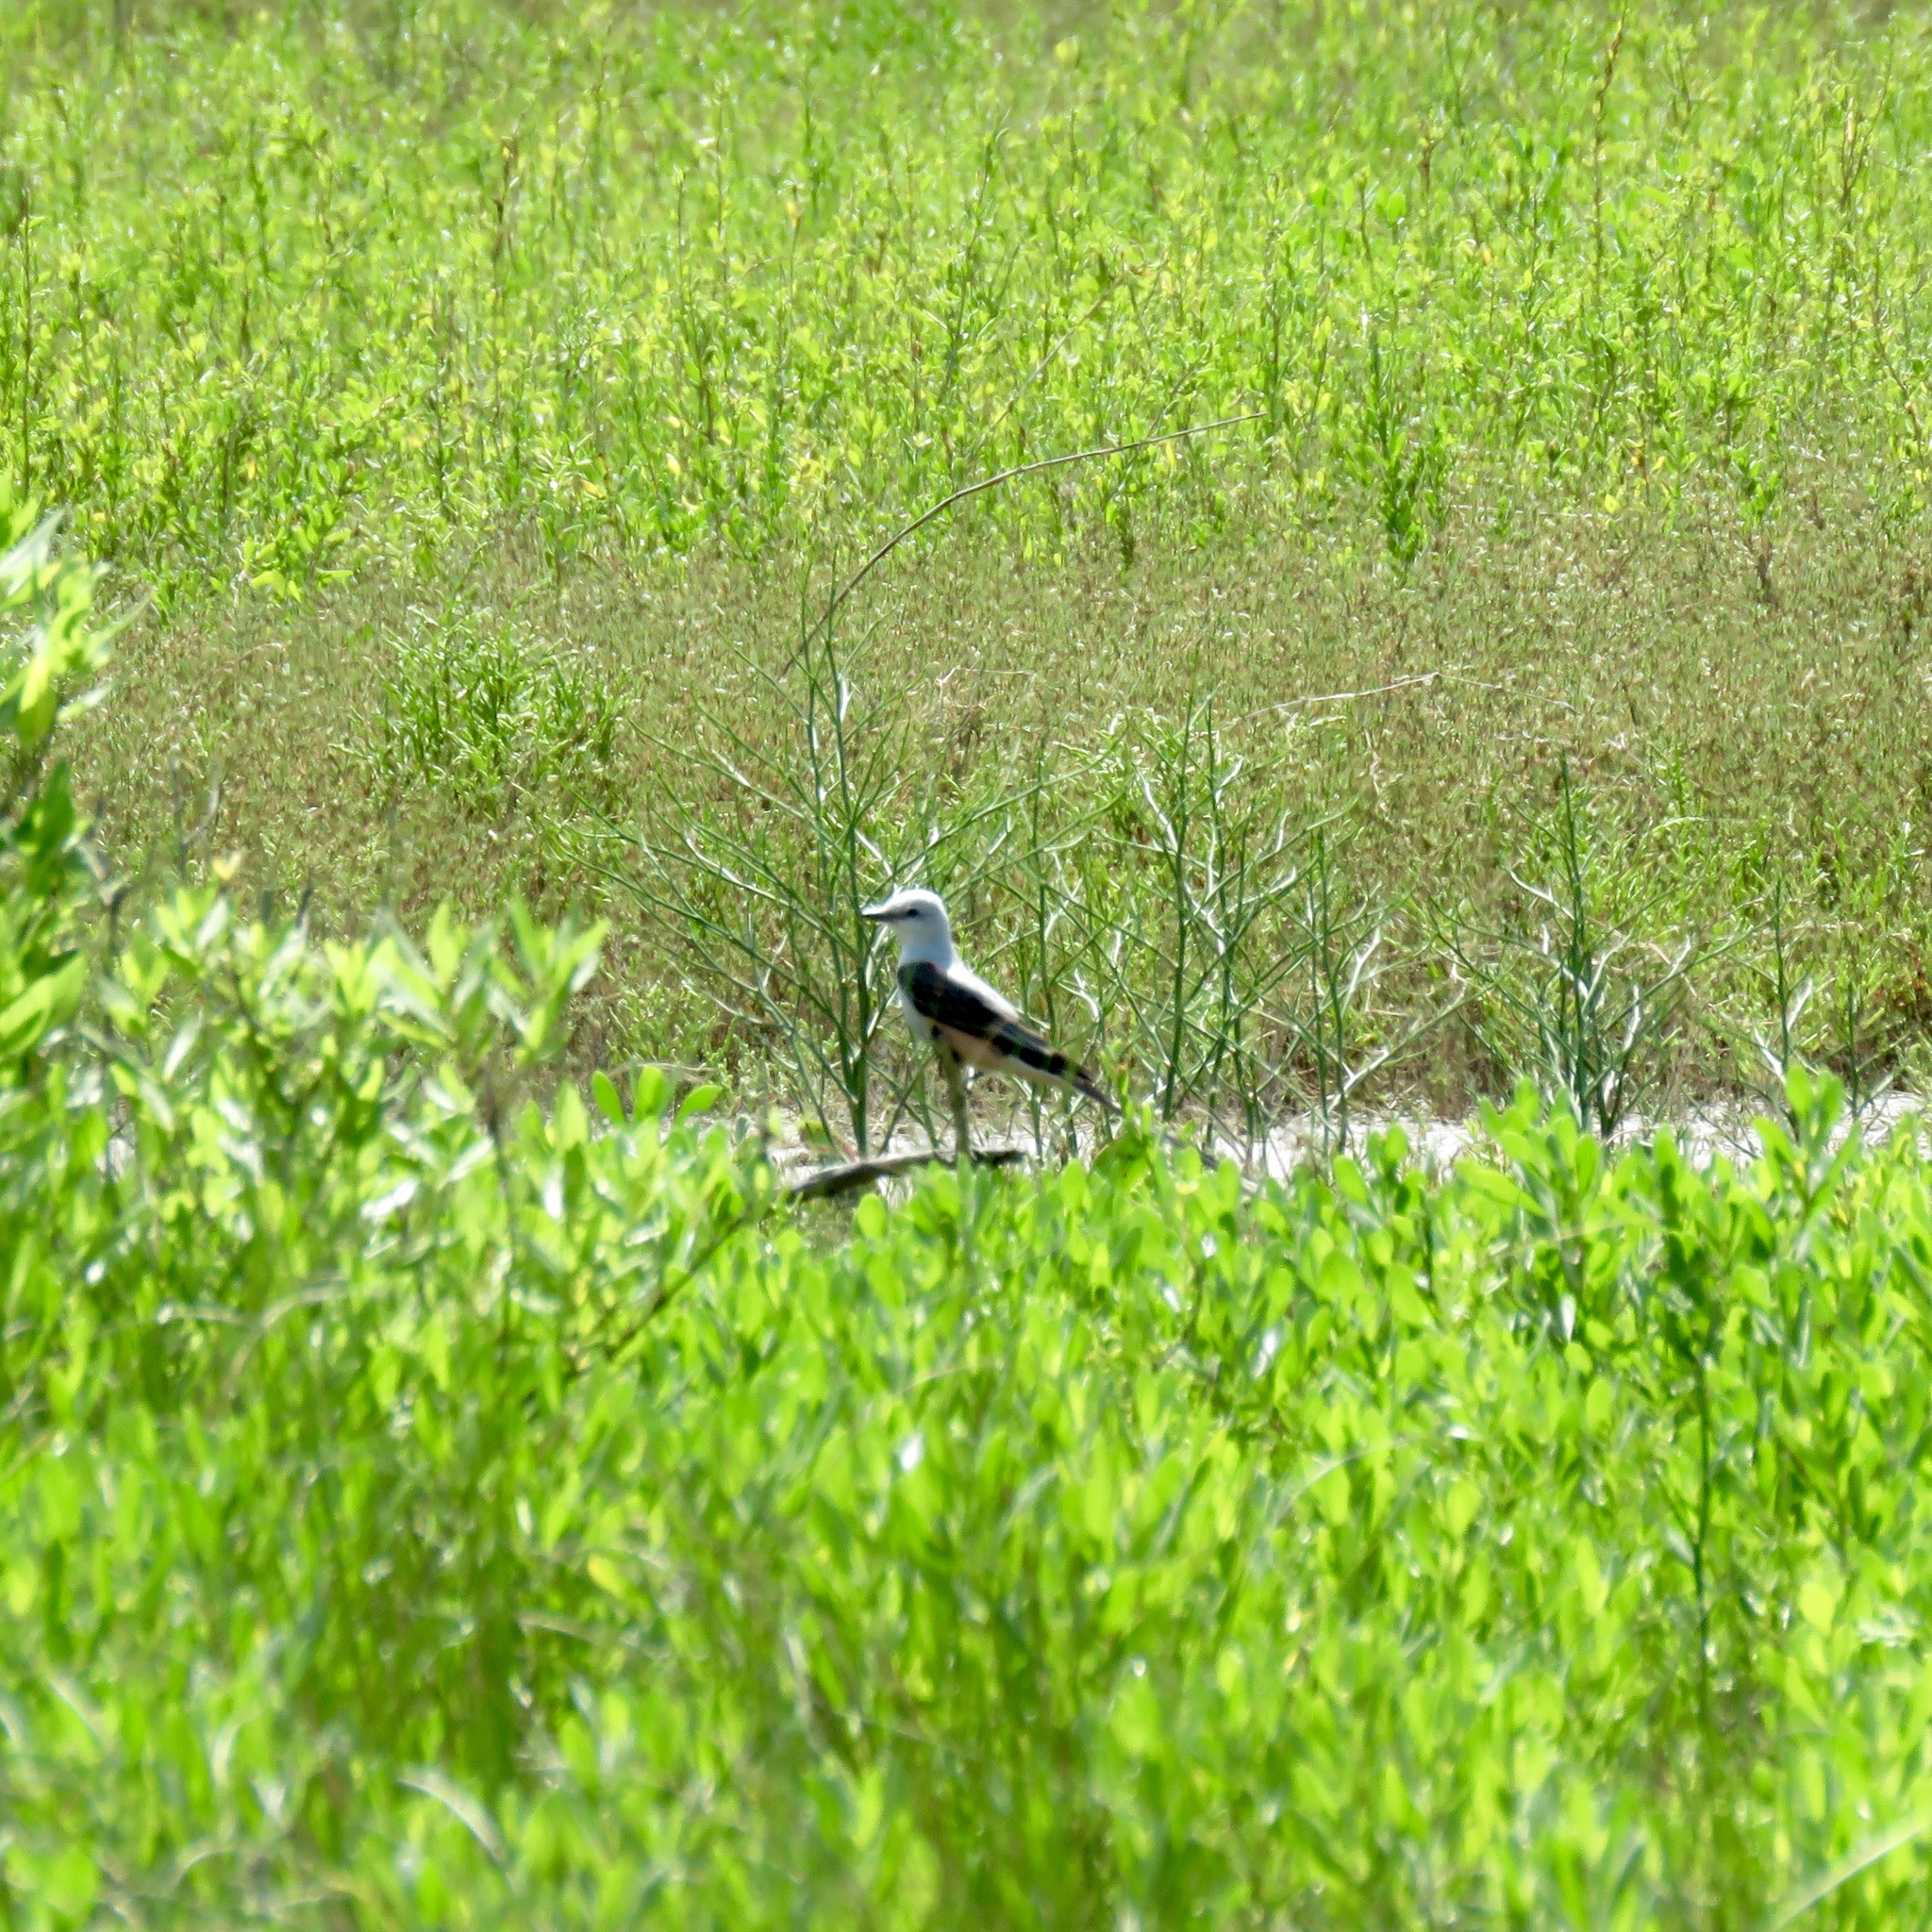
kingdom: Animalia
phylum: Chordata
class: Aves
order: Passeriformes
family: Tyrannidae
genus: Tyrannus
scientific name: Tyrannus forficatus
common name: Scissor-tailed flycatcher
